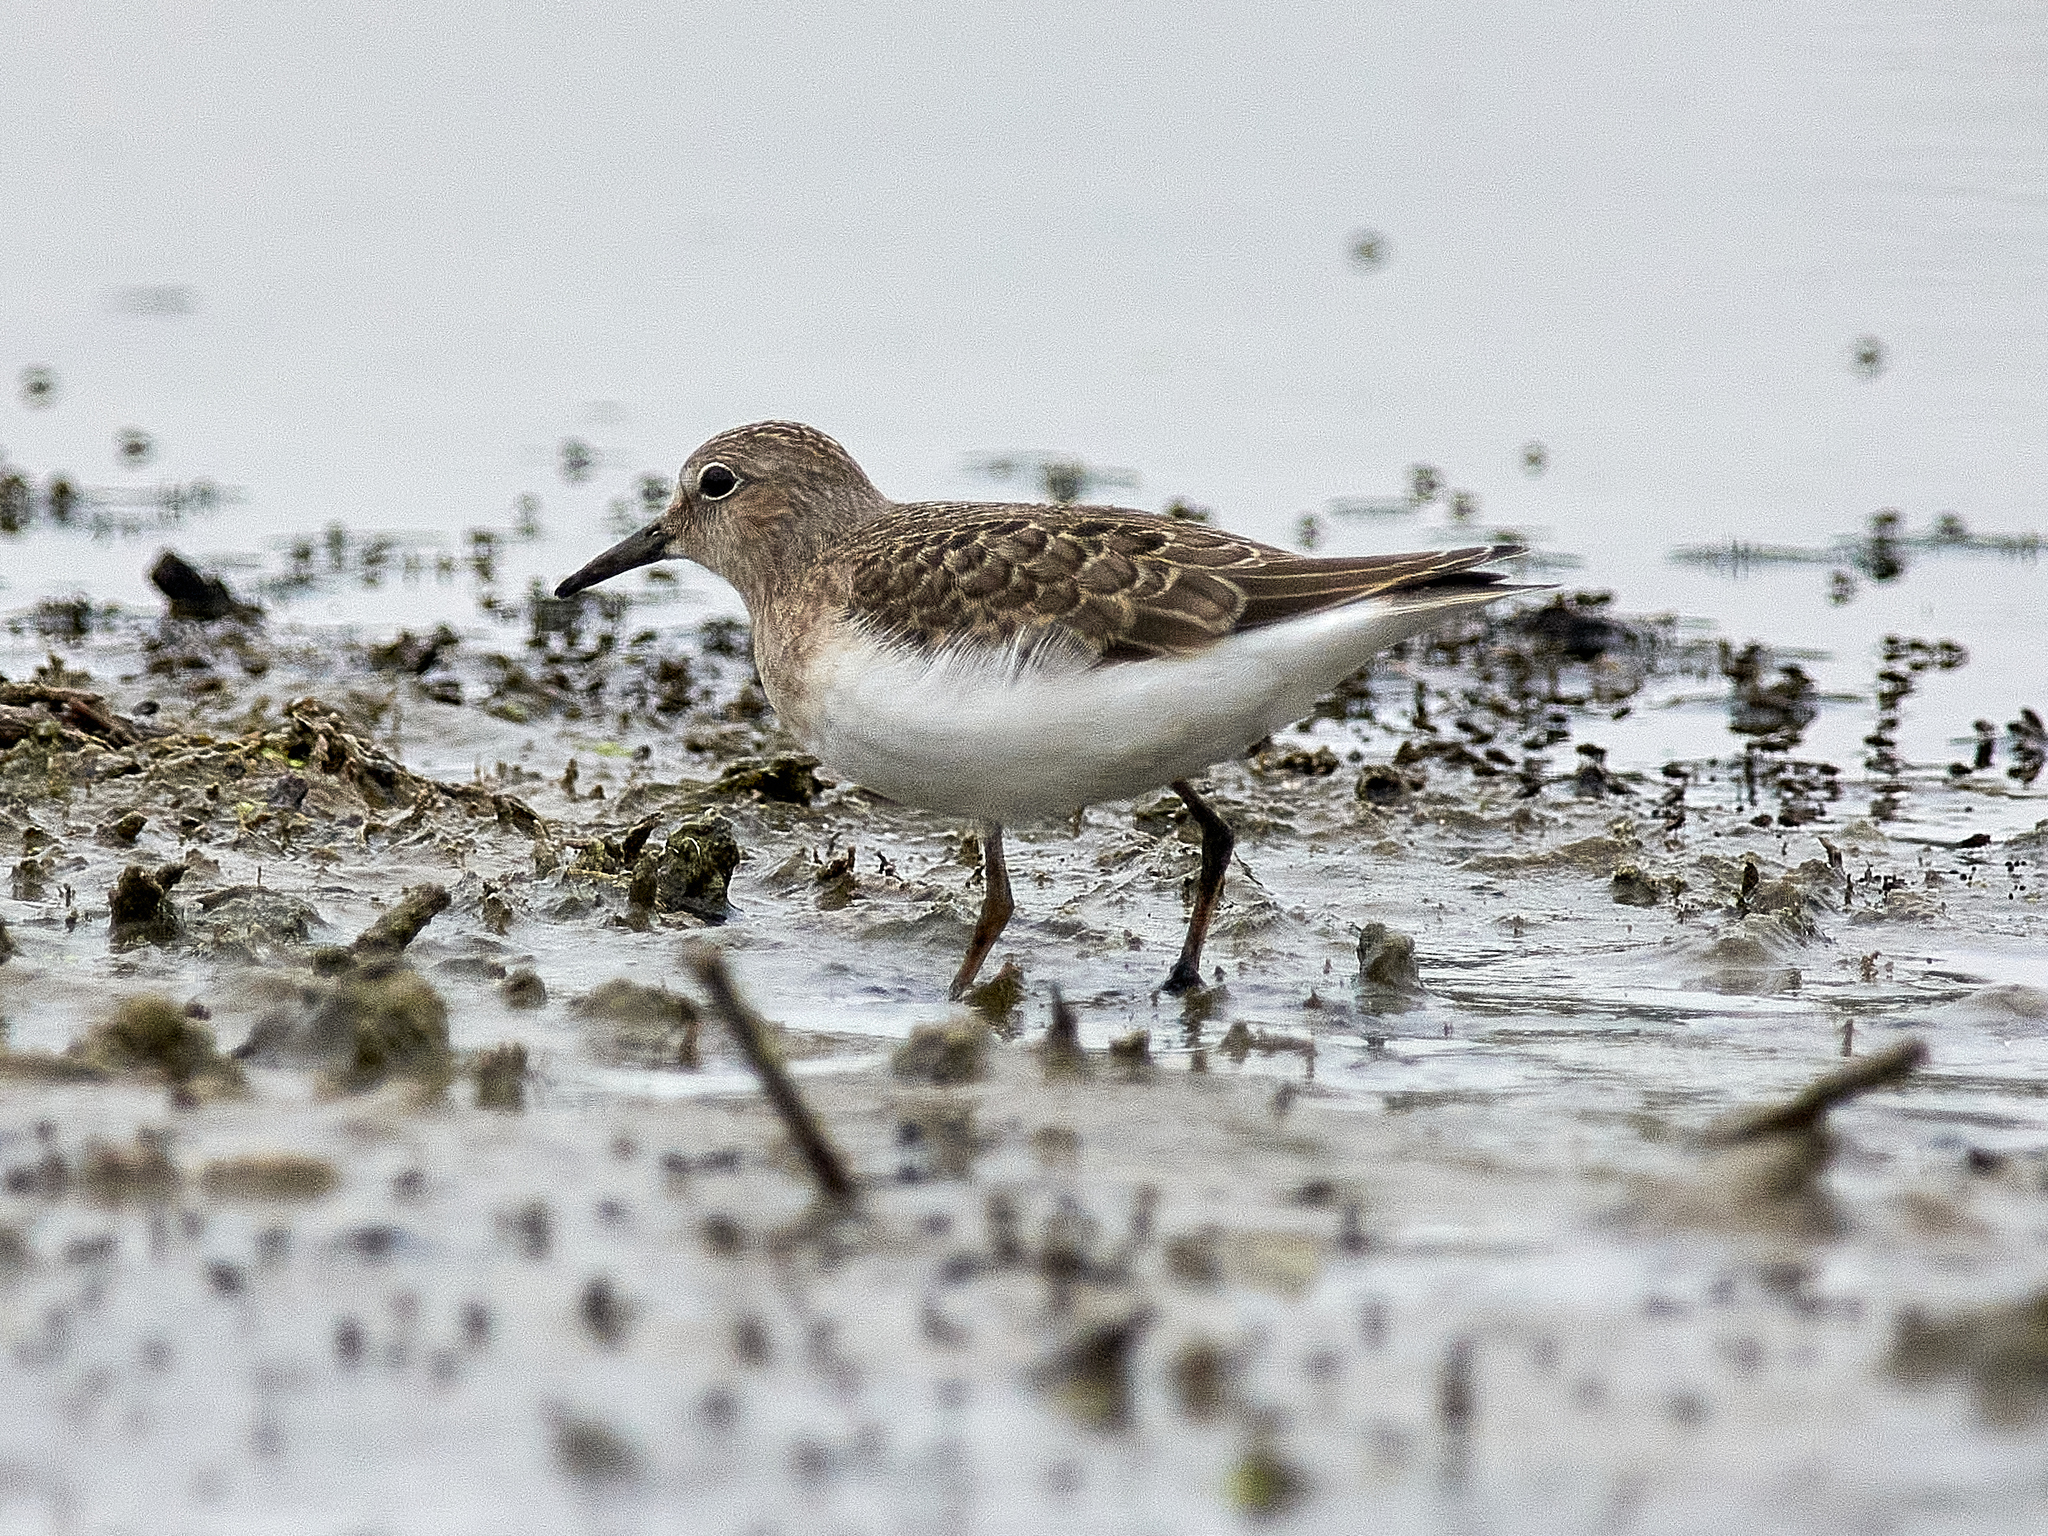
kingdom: Animalia
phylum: Chordata
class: Aves
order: Charadriiformes
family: Scolopacidae
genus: Calidris
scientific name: Calidris temminckii
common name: Temminck's stint
